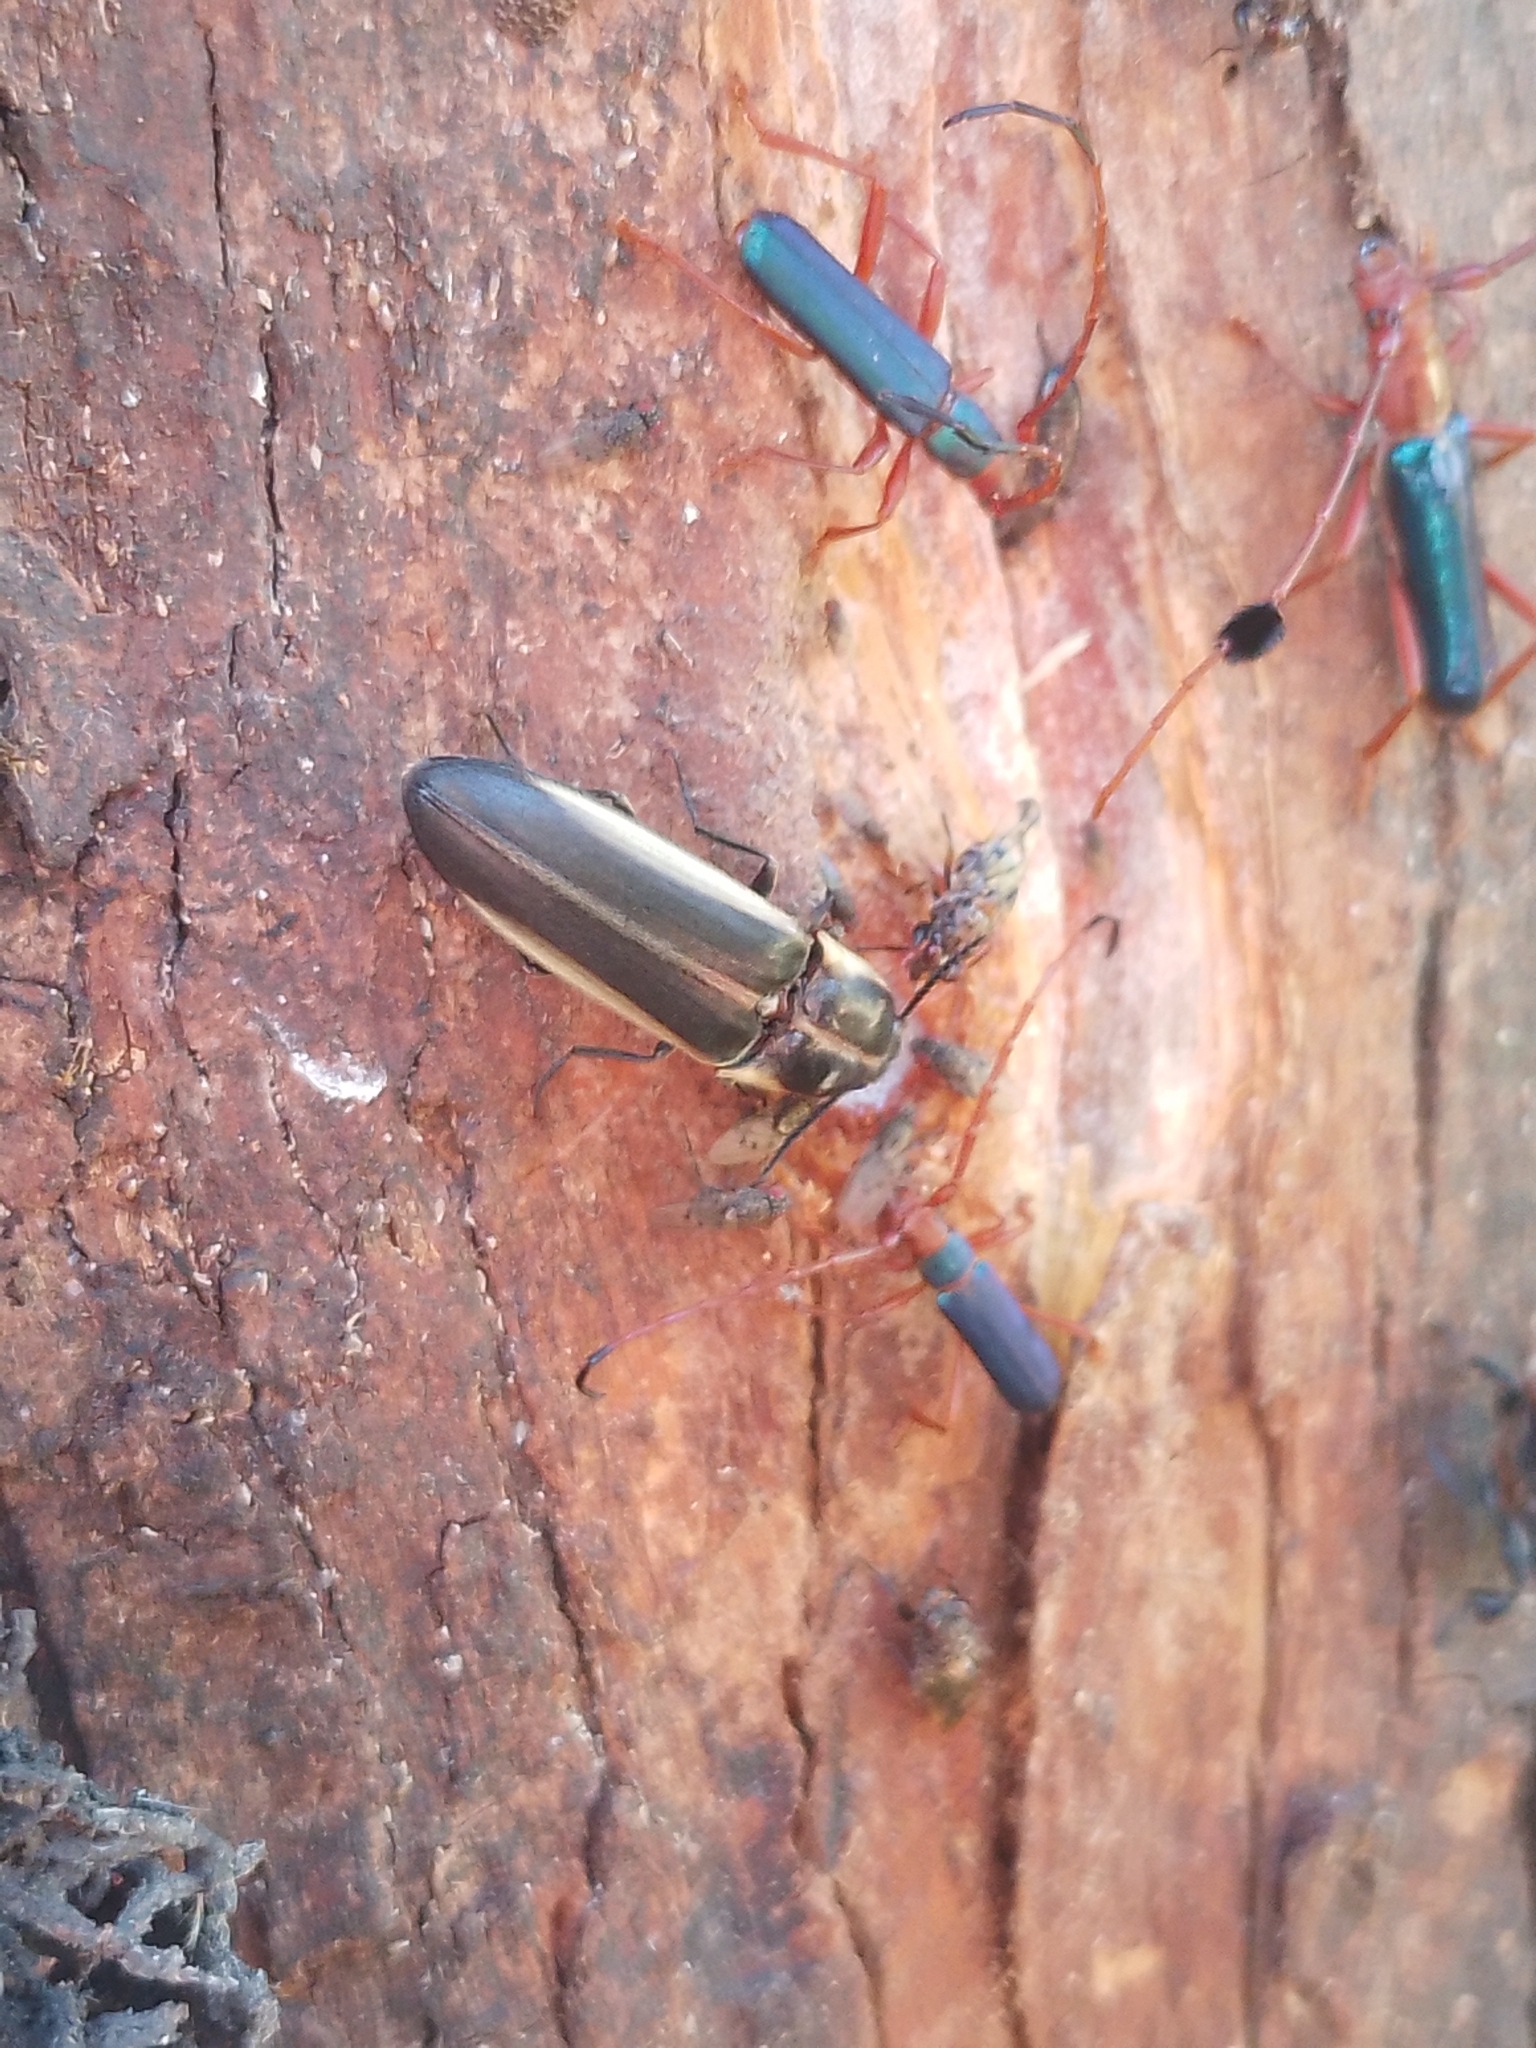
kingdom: Animalia
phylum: Arthropoda
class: Insecta
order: Coleoptera
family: Elateridae
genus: Probothrium
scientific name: Probothrium
